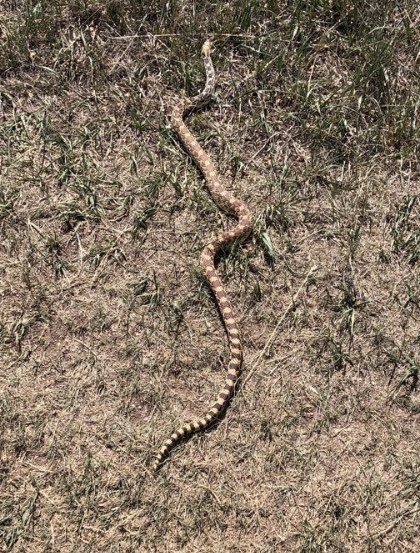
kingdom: Animalia
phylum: Chordata
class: Squamata
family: Colubridae
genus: Pituophis
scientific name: Pituophis catenifer
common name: Gopher snake
